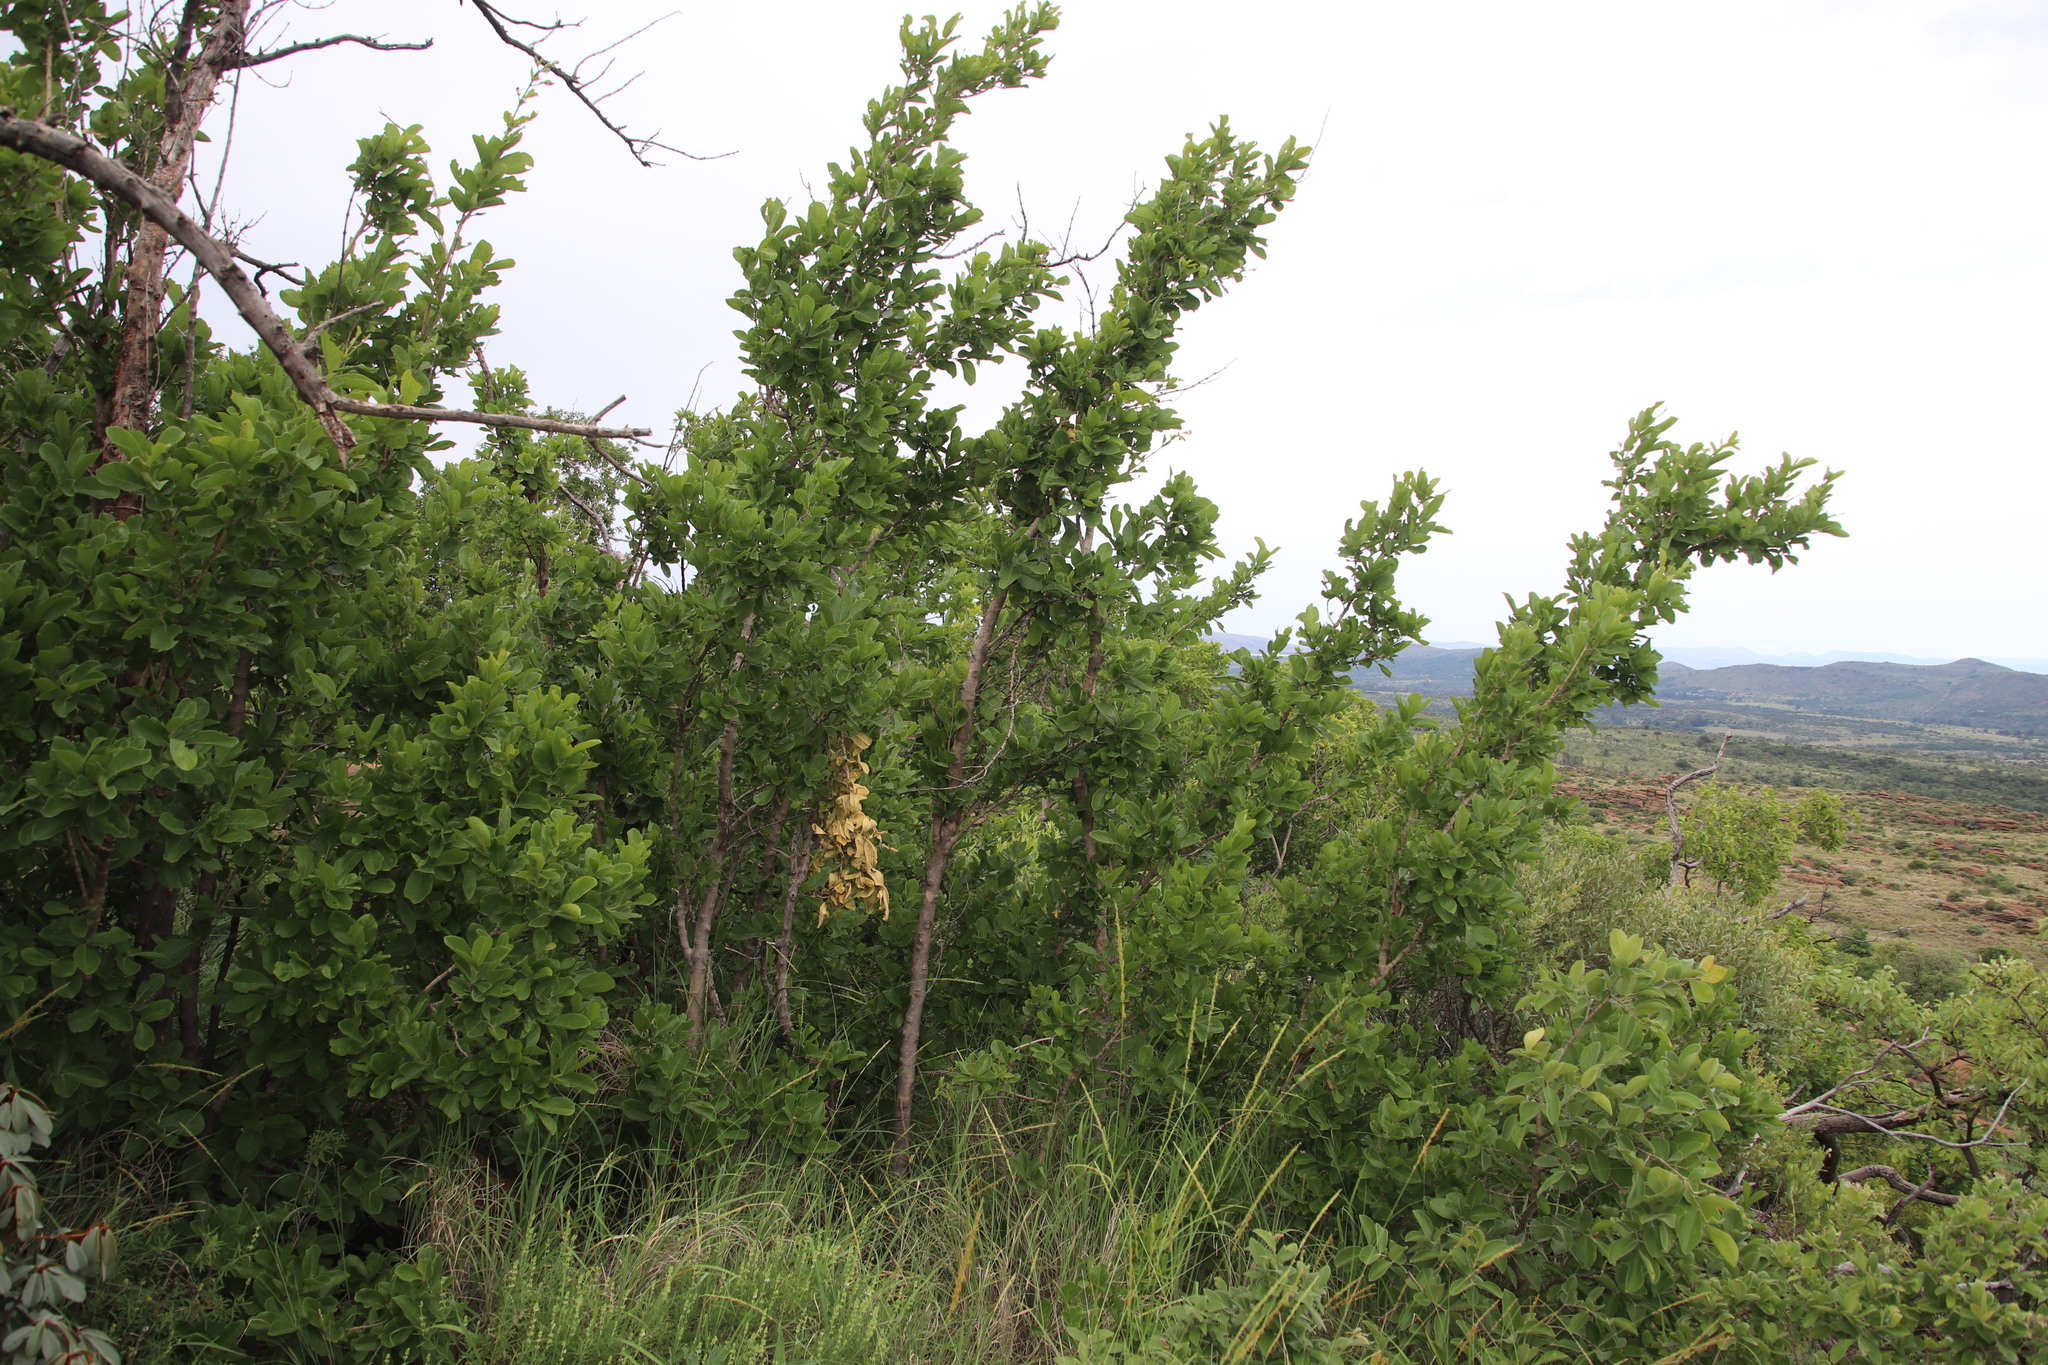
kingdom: Plantae
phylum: Tracheophyta
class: Magnoliopsida
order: Myrtales
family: Combretaceae
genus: Combretum
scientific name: Combretum zeyheri
